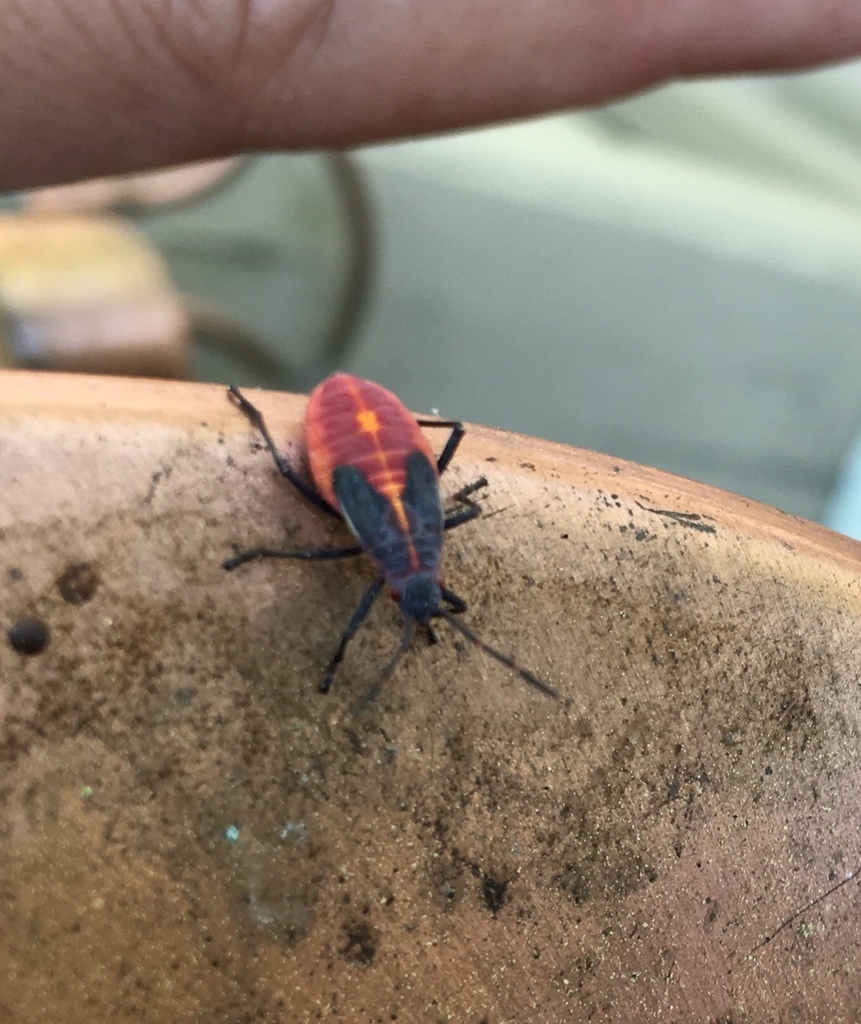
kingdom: Animalia
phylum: Arthropoda
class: Insecta
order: Hemiptera
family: Rhopalidae
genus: Boisea
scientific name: Boisea trivittata
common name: Boxelder bug
